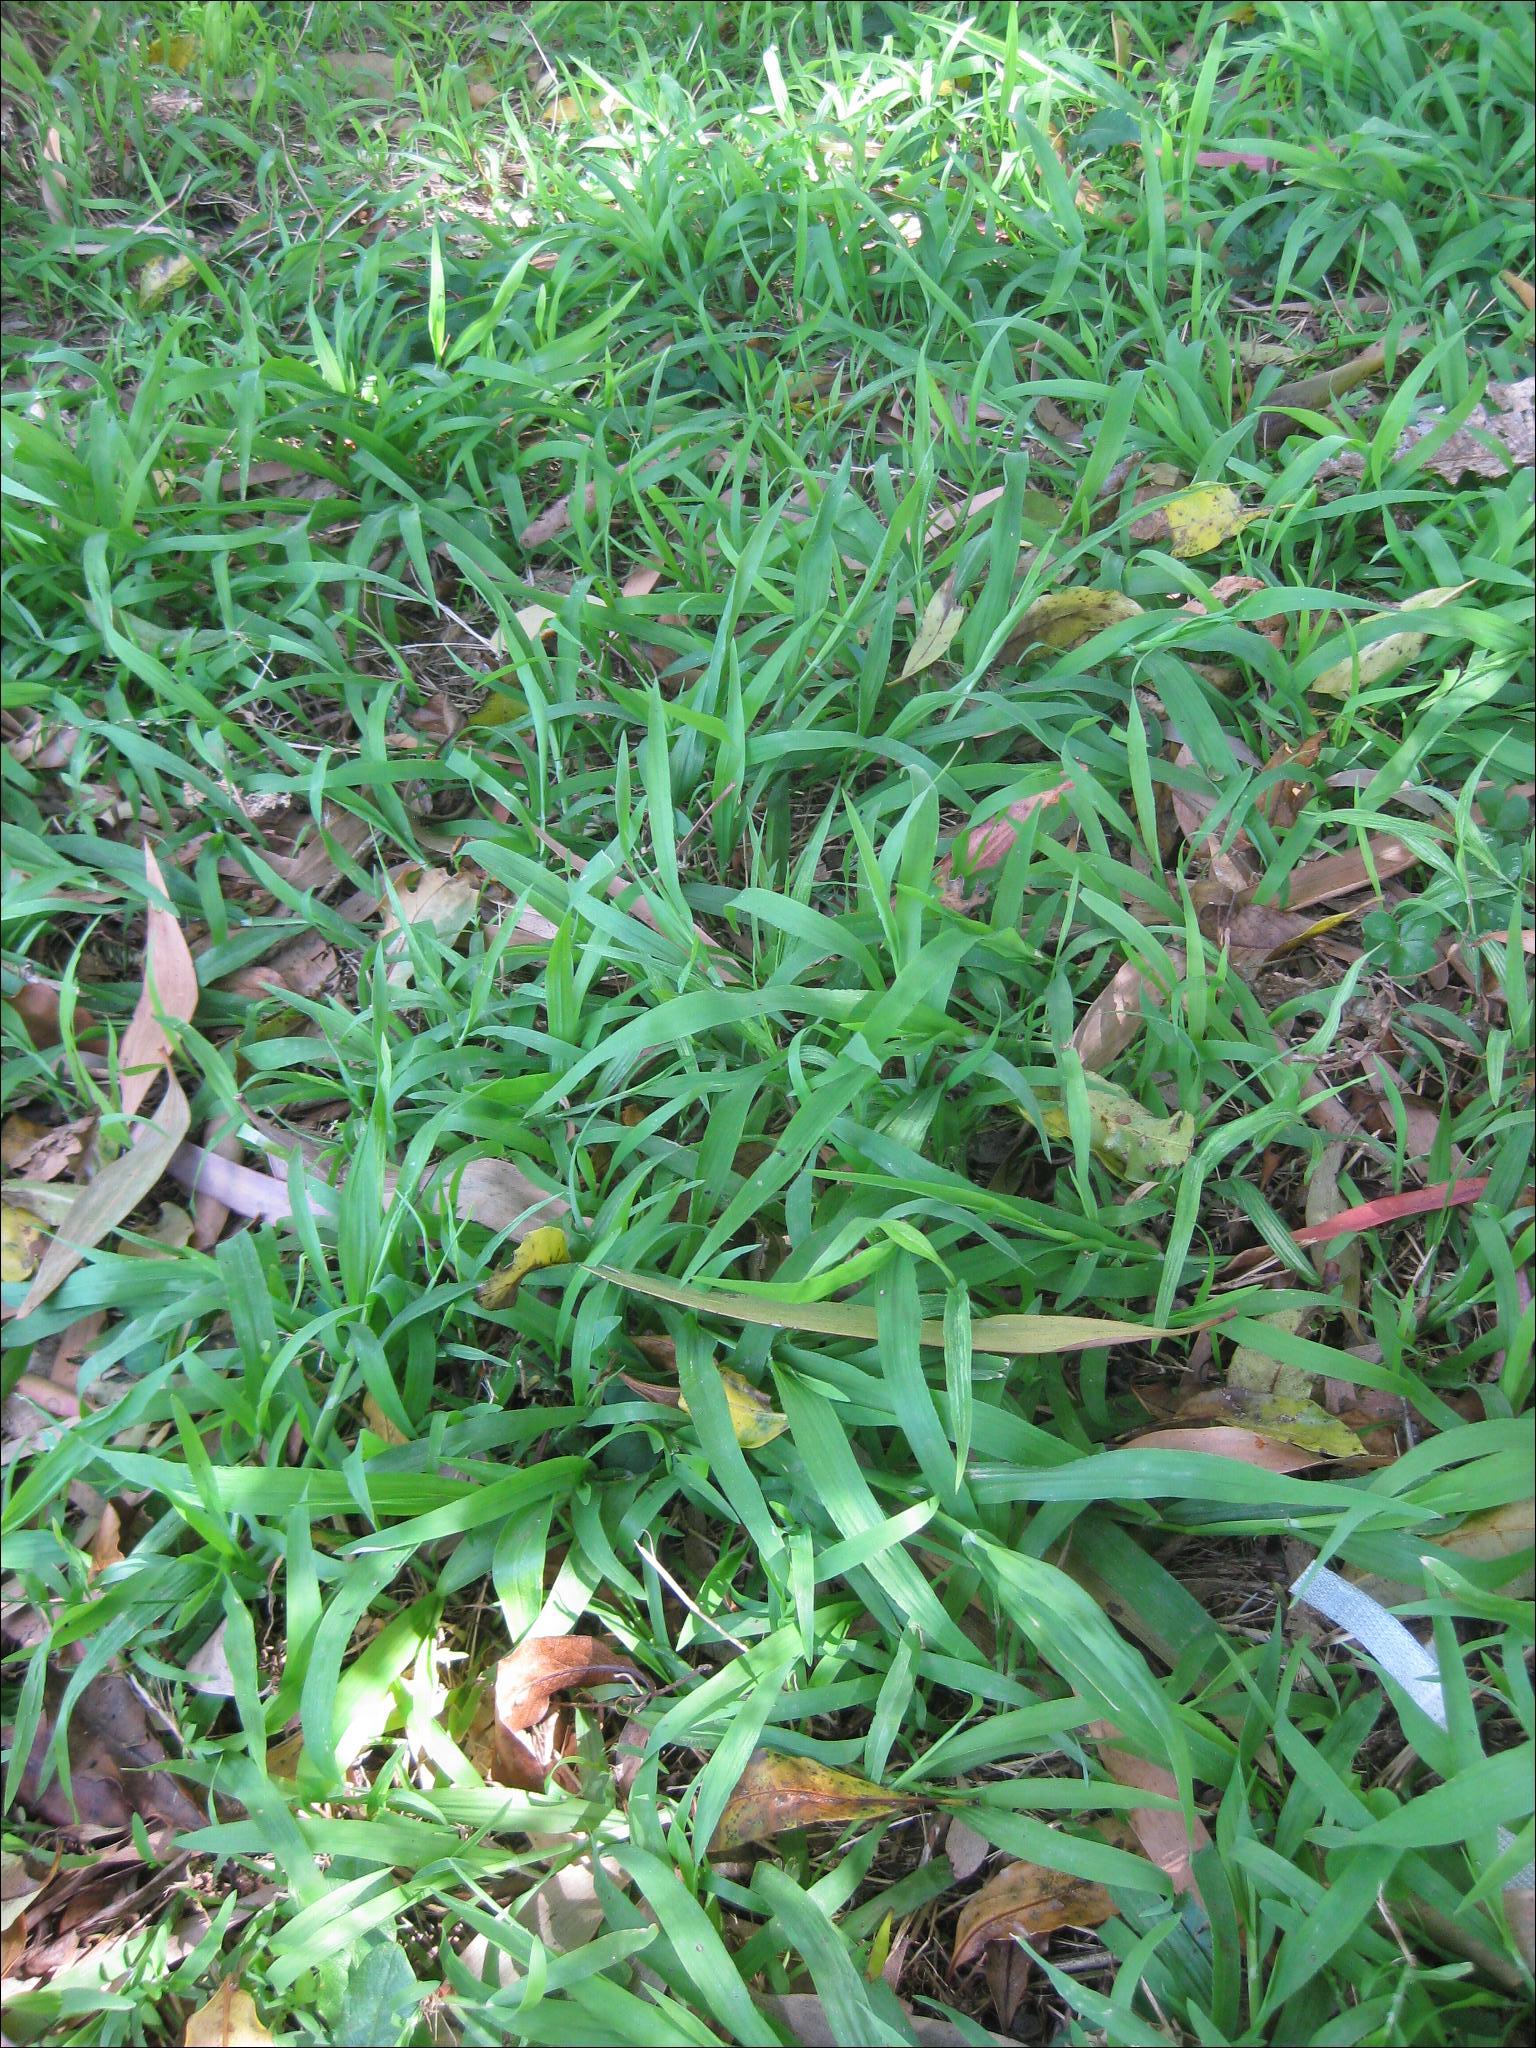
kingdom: Plantae
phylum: Tracheophyta
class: Liliopsida
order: Poales
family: Poaceae
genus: Ehrharta
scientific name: Ehrharta erecta
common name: Panic veldtgrass
